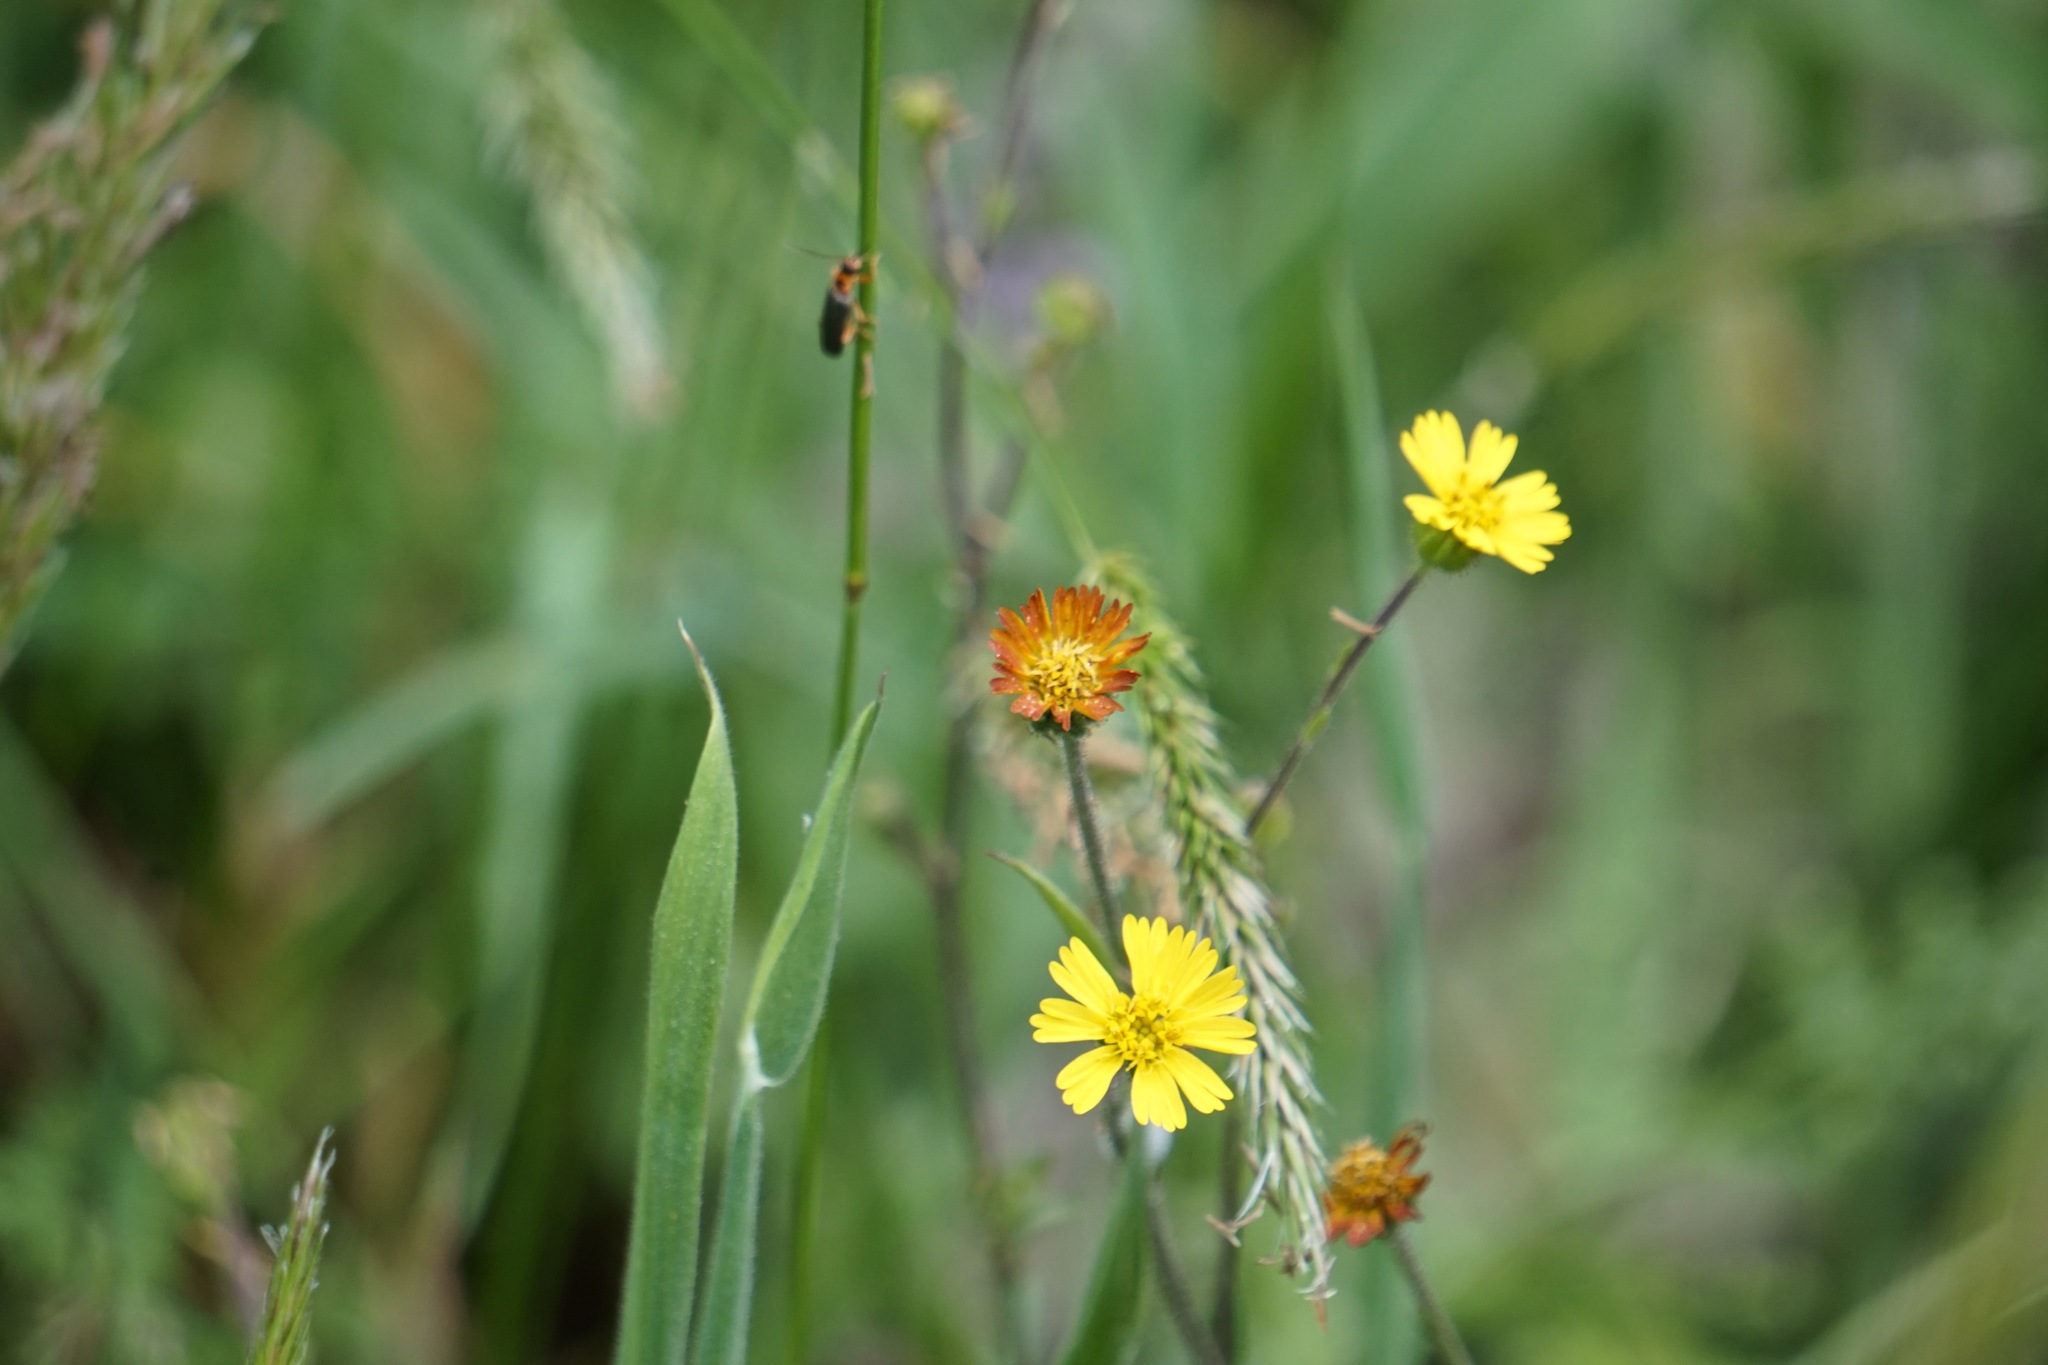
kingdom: Plantae
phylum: Tracheophyta
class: Magnoliopsida
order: Asterales
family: Asteraceae
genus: Anisocarpus
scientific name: Anisocarpus madioides
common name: Woodland madia
